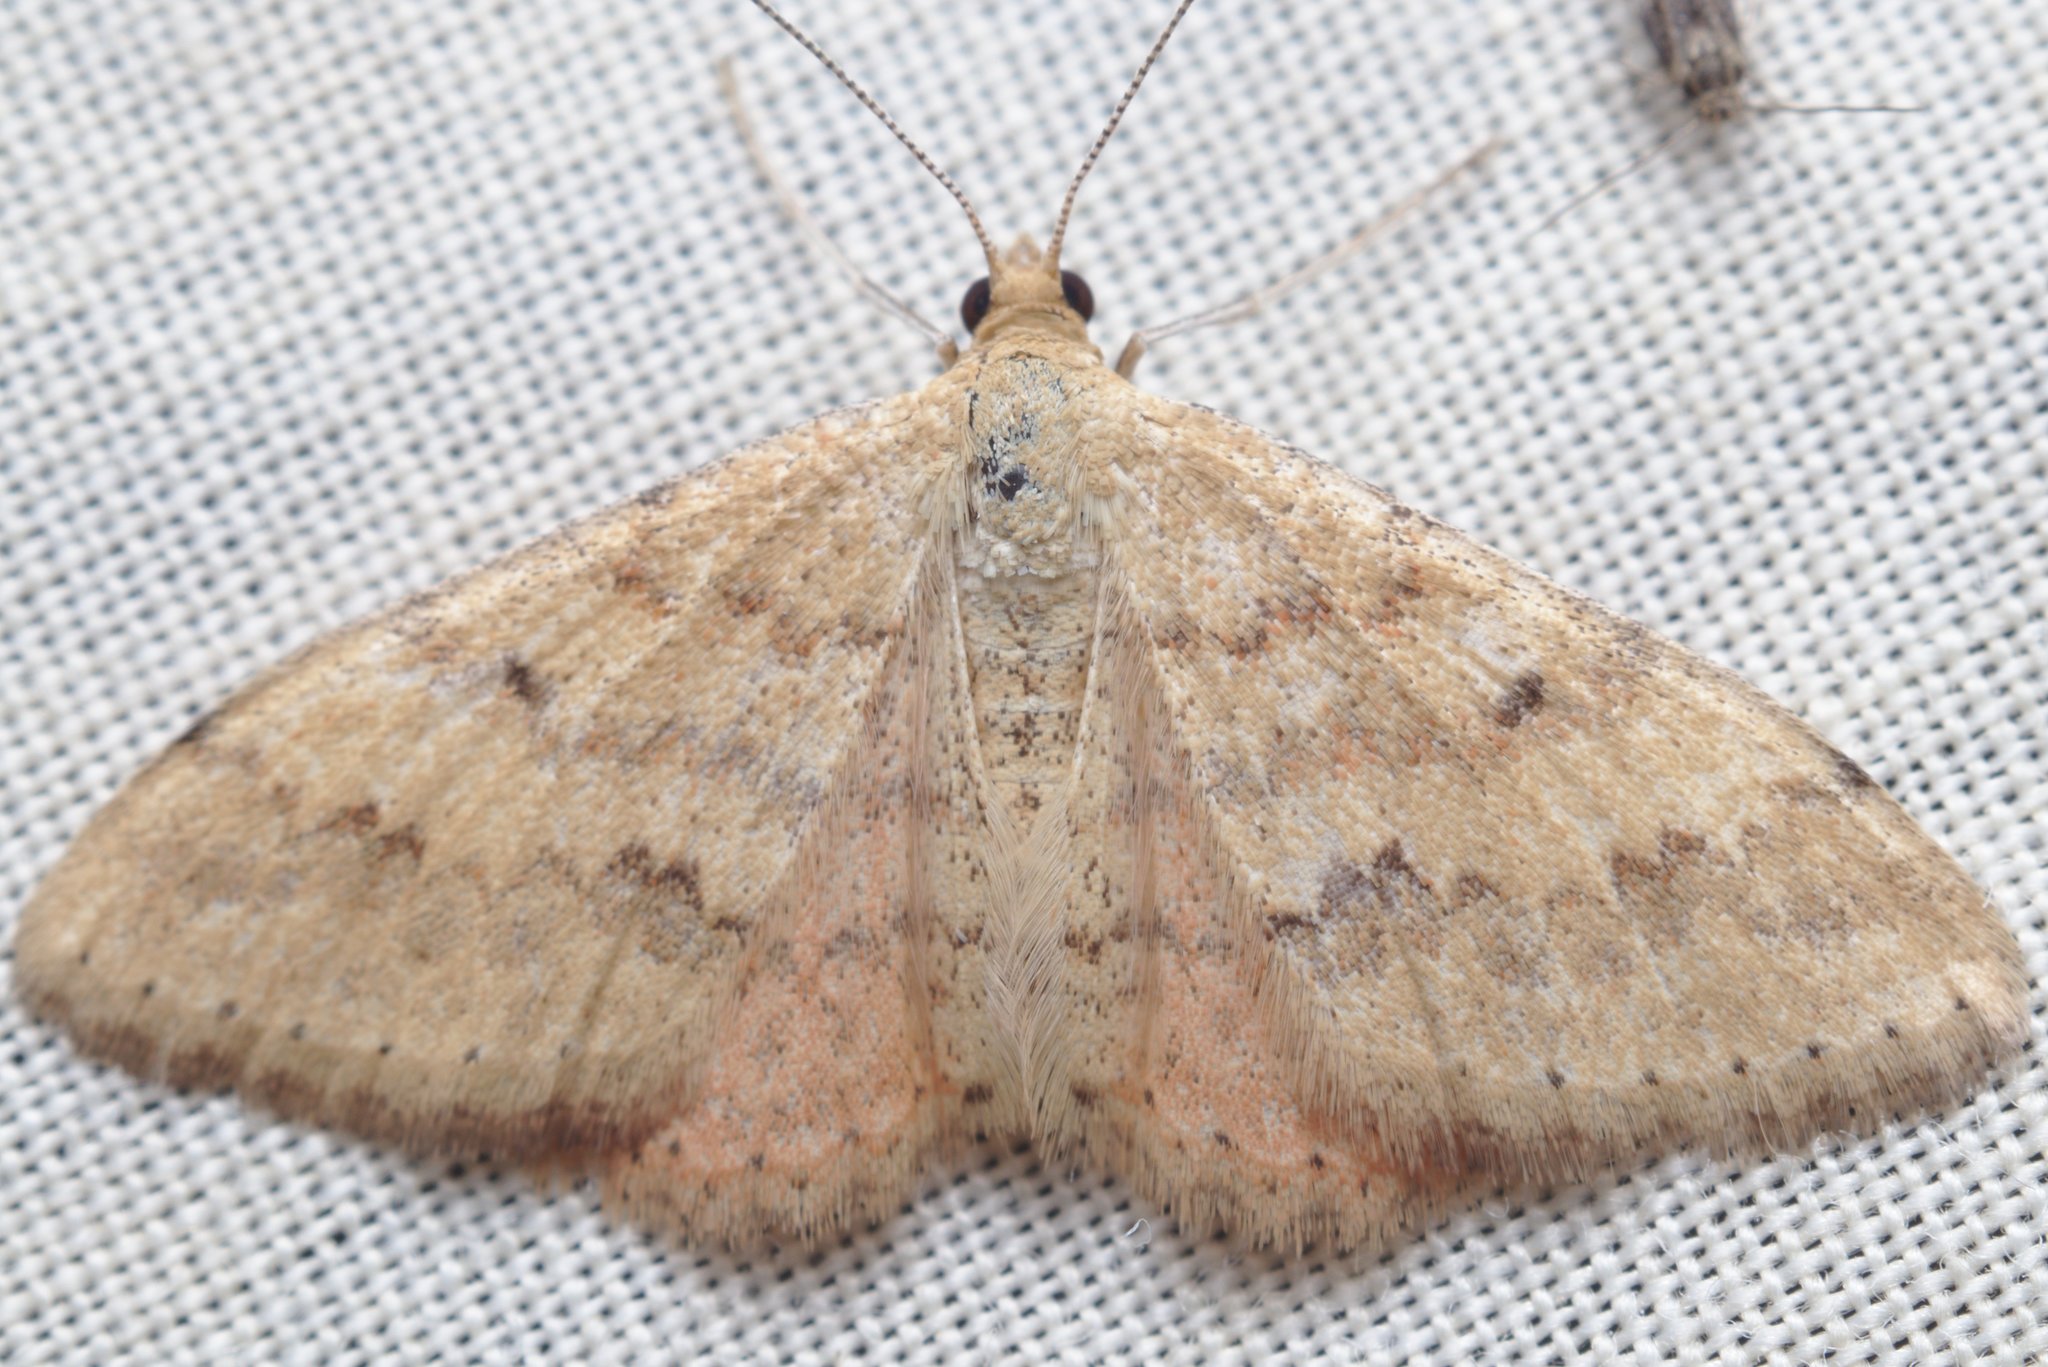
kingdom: Animalia
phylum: Arthropoda
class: Insecta
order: Lepidoptera
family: Geometridae
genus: Scopula
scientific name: Scopula rubraria
